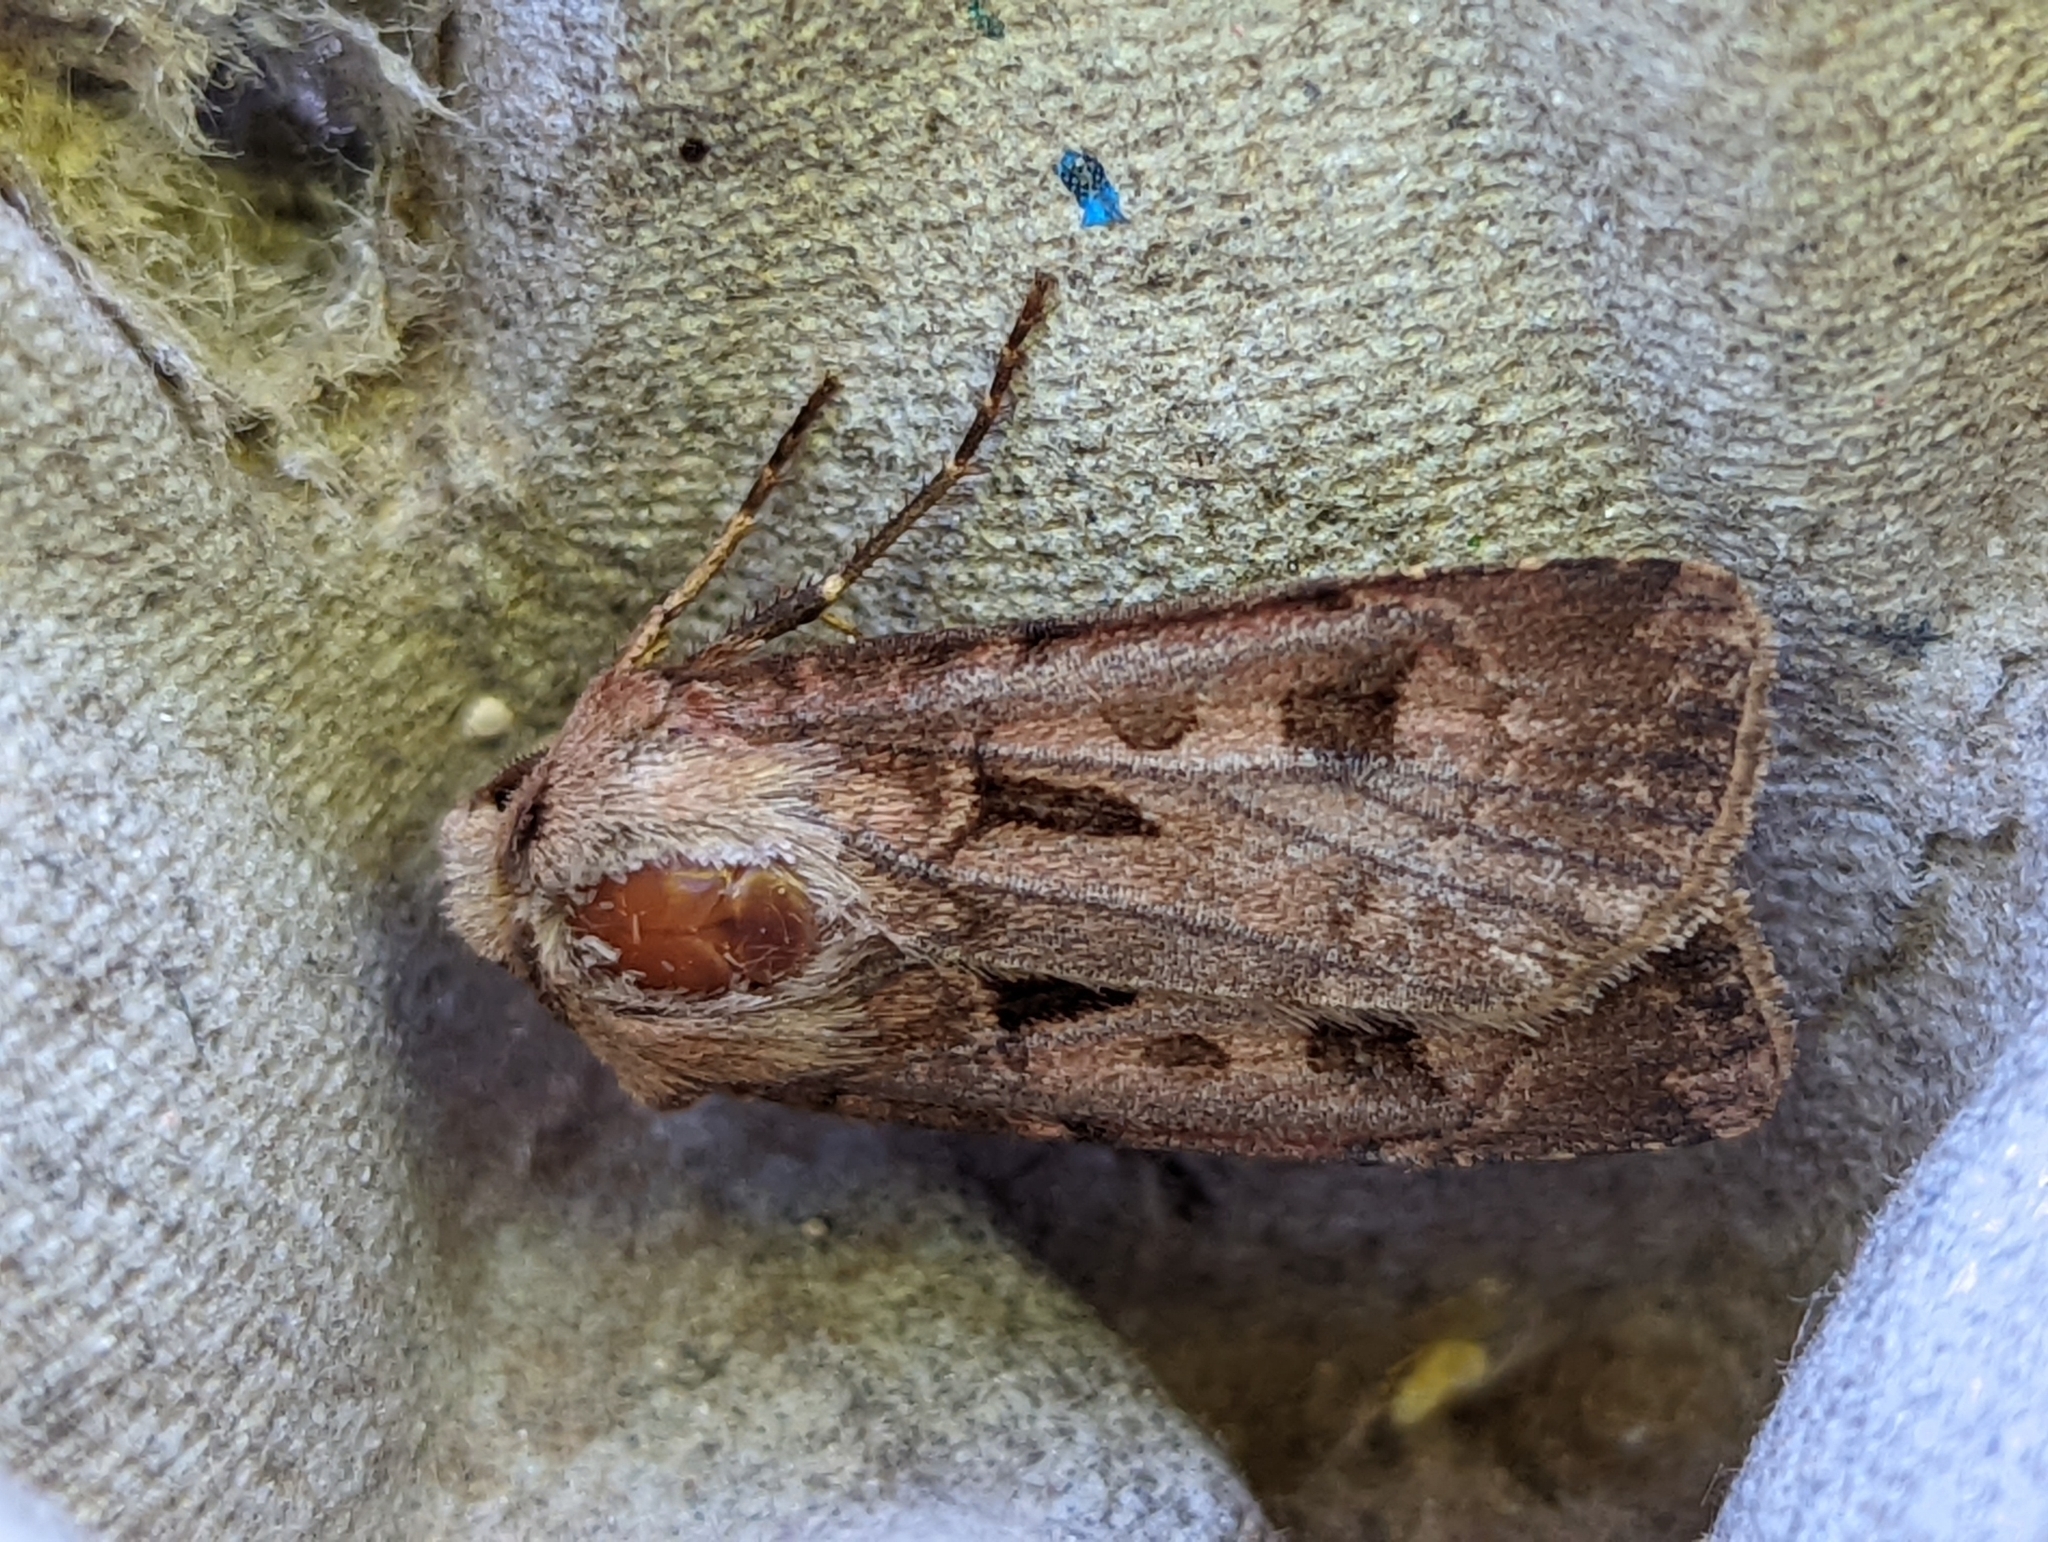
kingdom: Animalia
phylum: Arthropoda
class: Insecta
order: Lepidoptera
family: Noctuidae
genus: Agrotis
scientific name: Agrotis exclamationis
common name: Heart and dart
